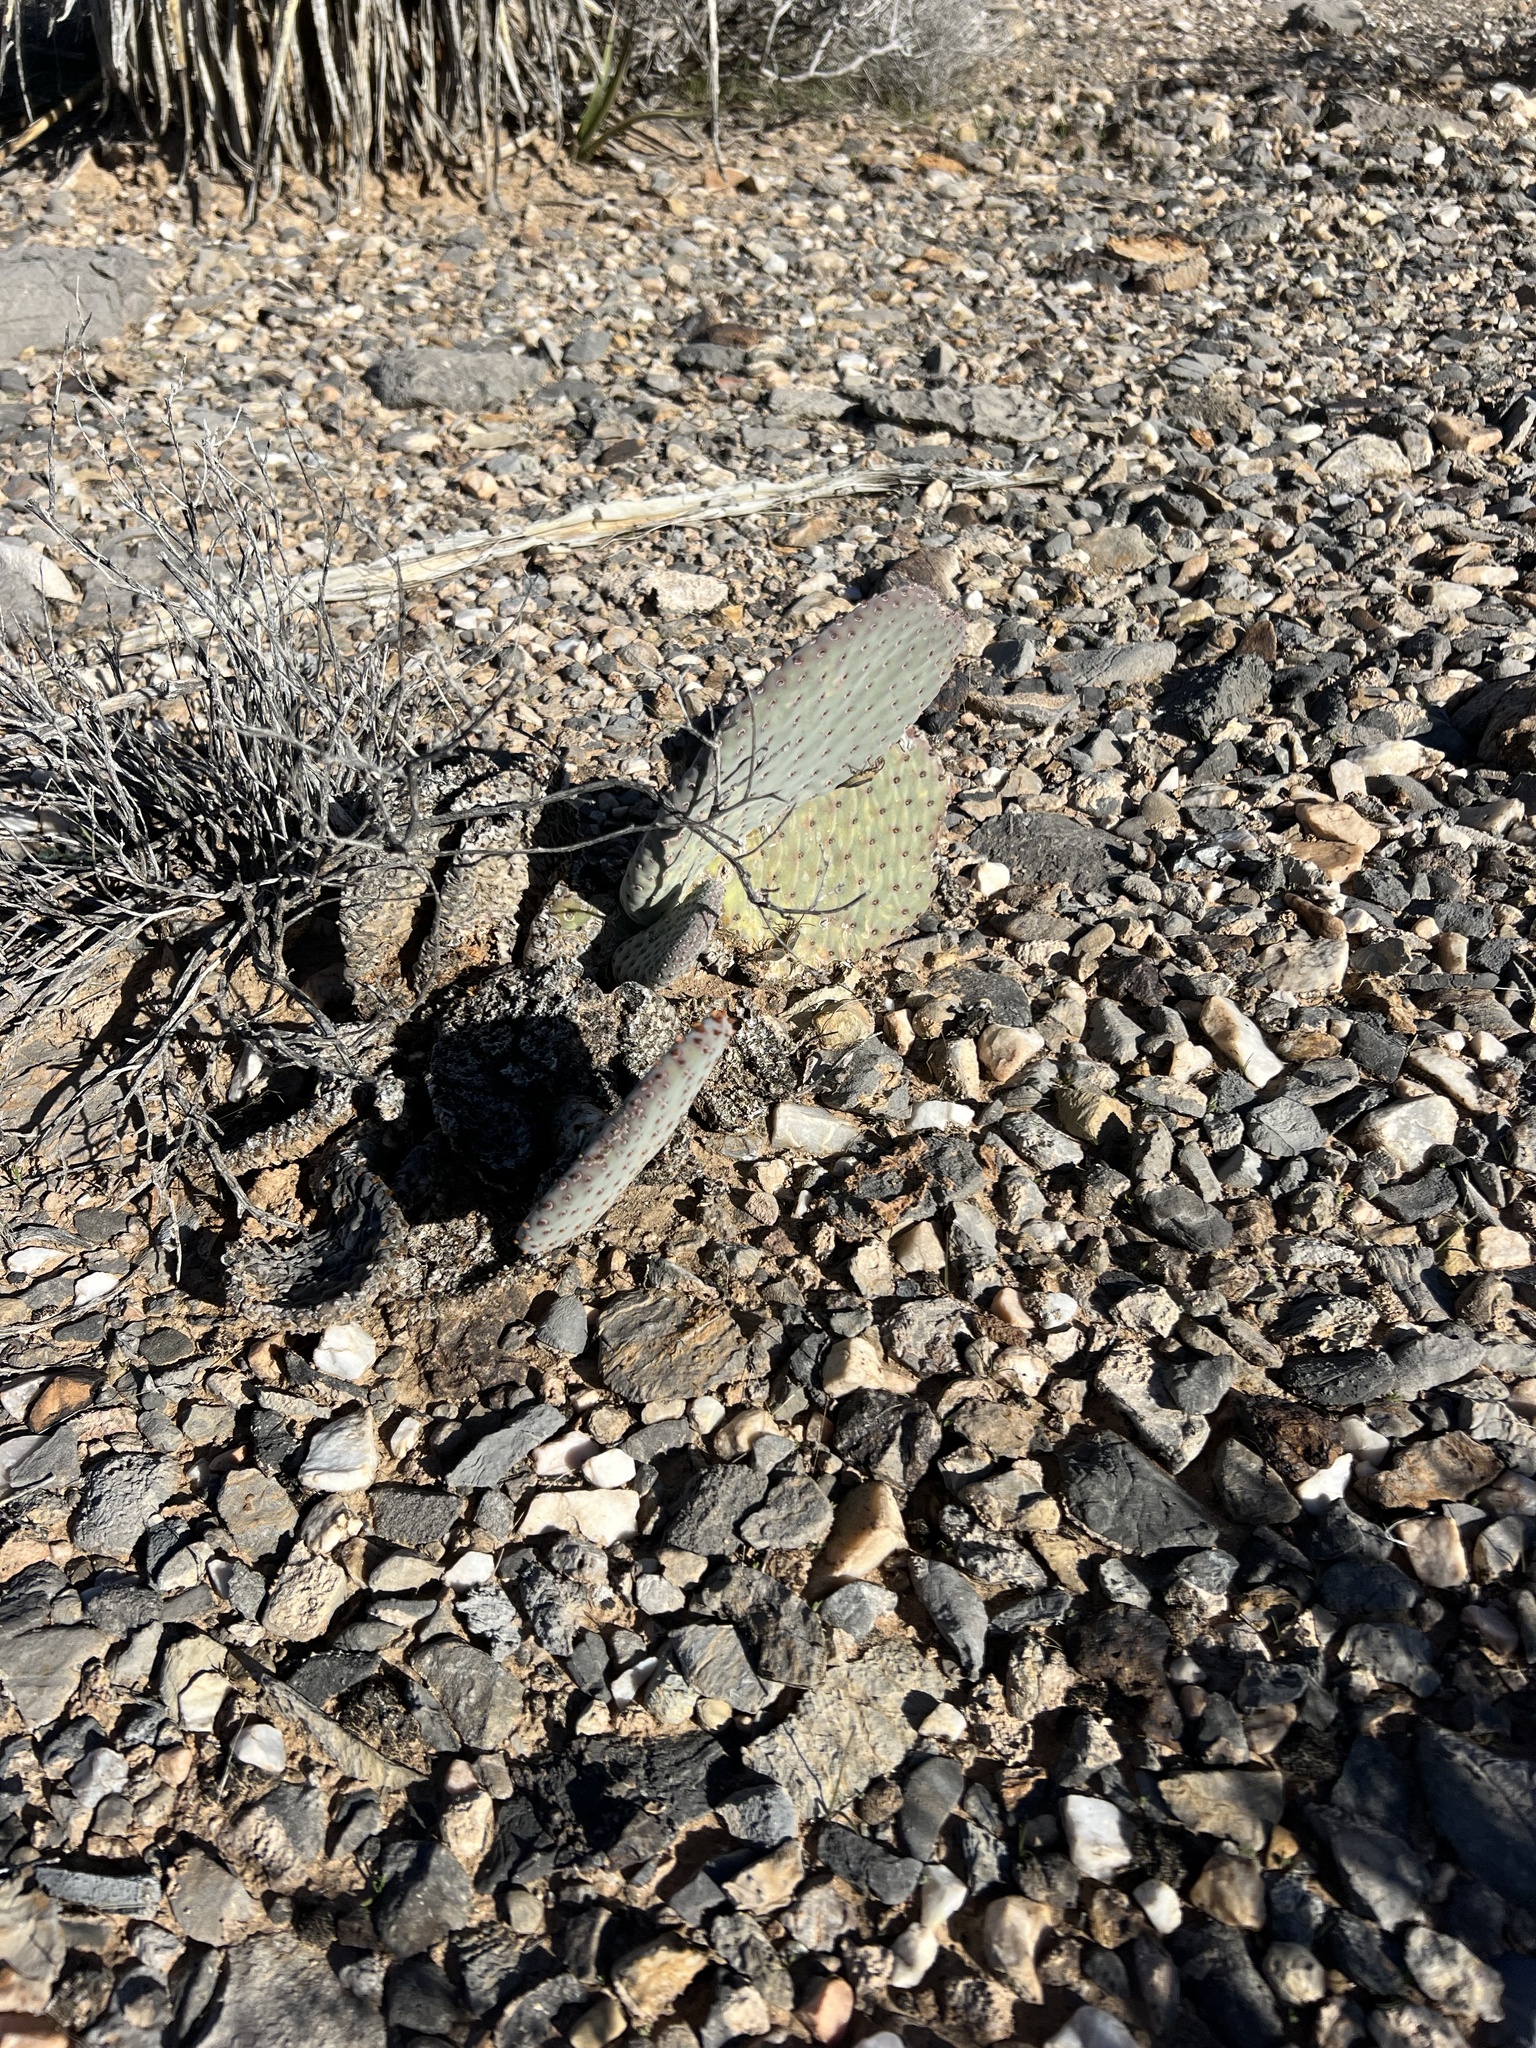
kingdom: Plantae
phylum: Tracheophyta
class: Magnoliopsida
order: Caryophyllales
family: Cactaceae
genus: Opuntia
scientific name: Opuntia basilaris
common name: Beavertail prickly-pear
